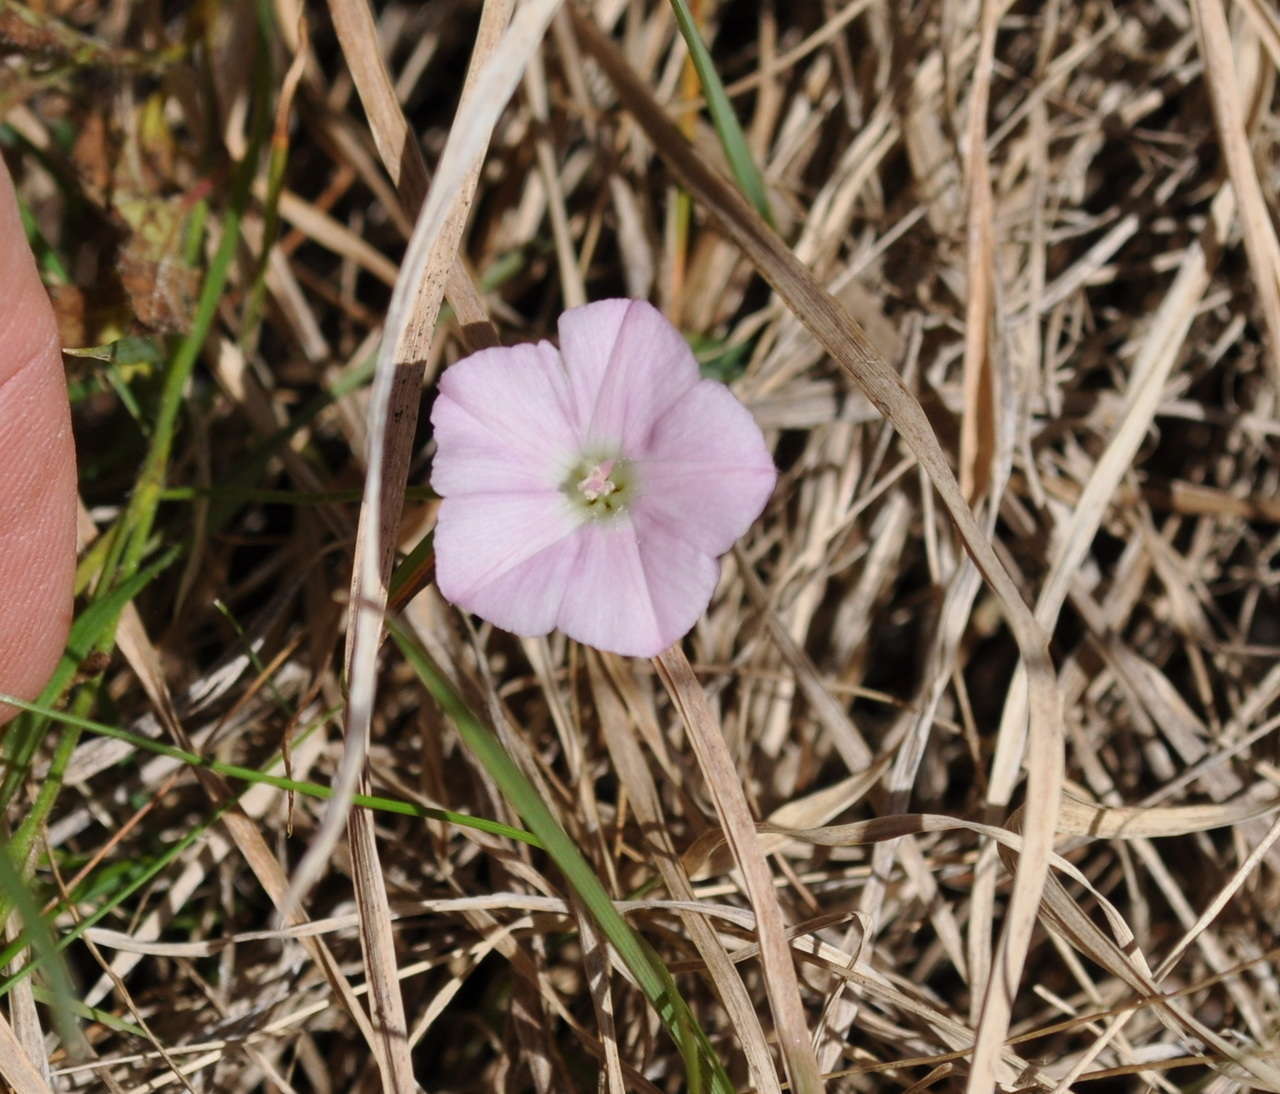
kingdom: Plantae
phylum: Tracheophyta
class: Magnoliopsida
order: Solanales
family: Convolvulaceae
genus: Convolvulus
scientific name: Convolvulus angustissimus
